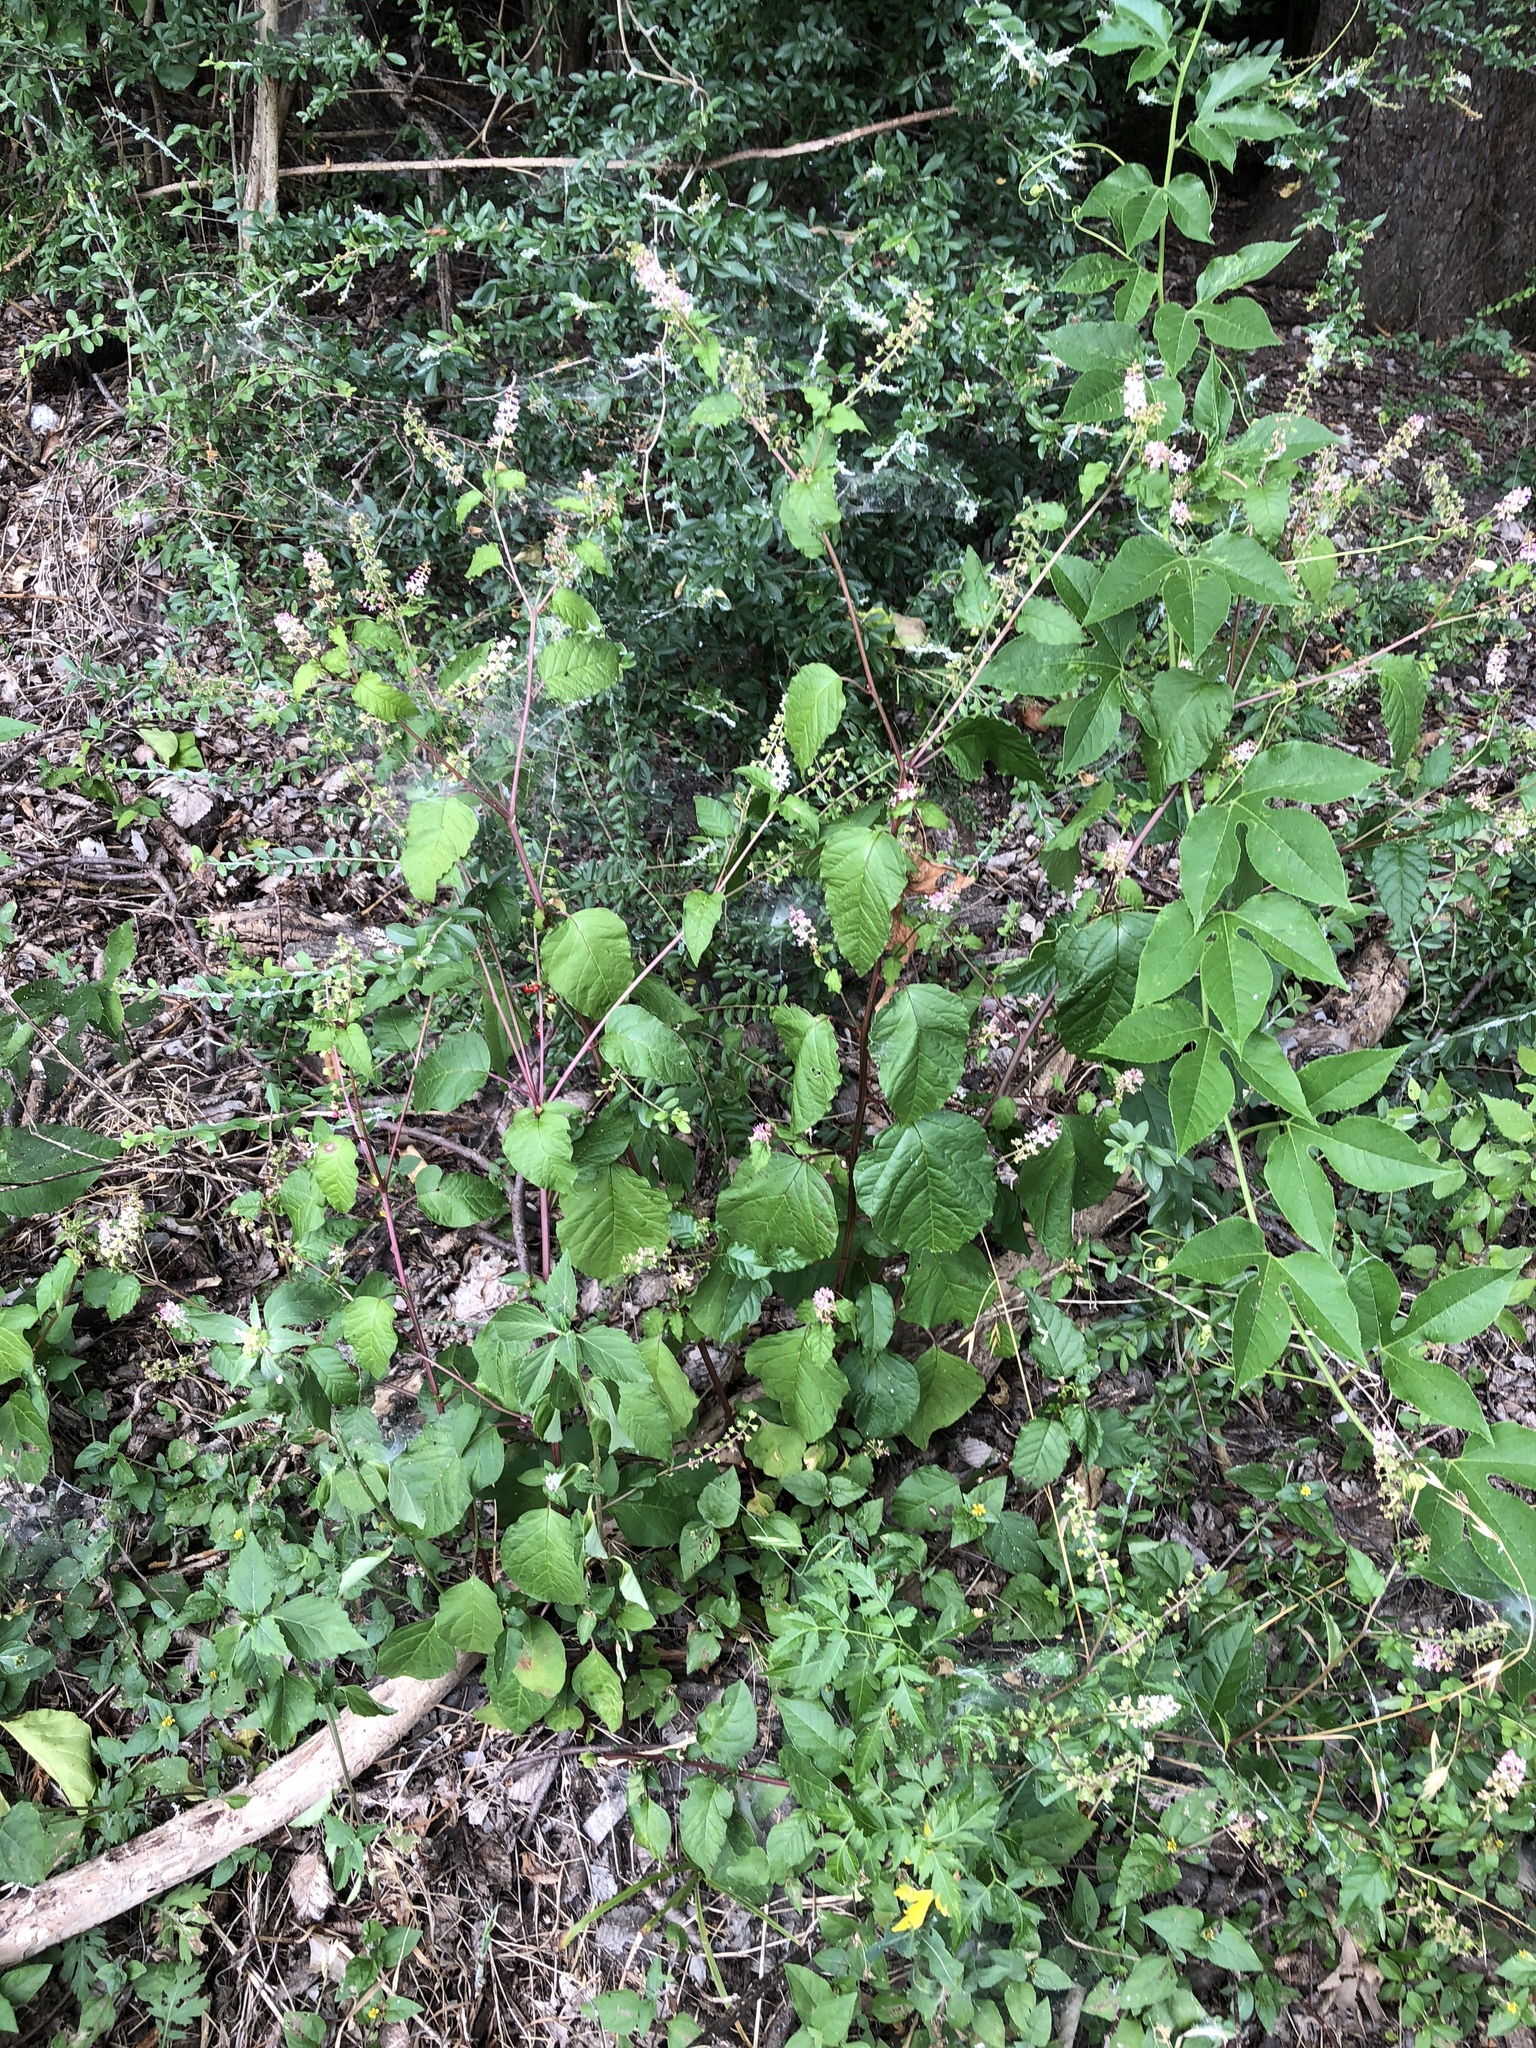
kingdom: Plantae
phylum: Tracheophyta
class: Magnoliopsida
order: Caryophyllales
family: Phytolaccaceae
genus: Rivina
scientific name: Rivina humilis
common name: Rougeplant
